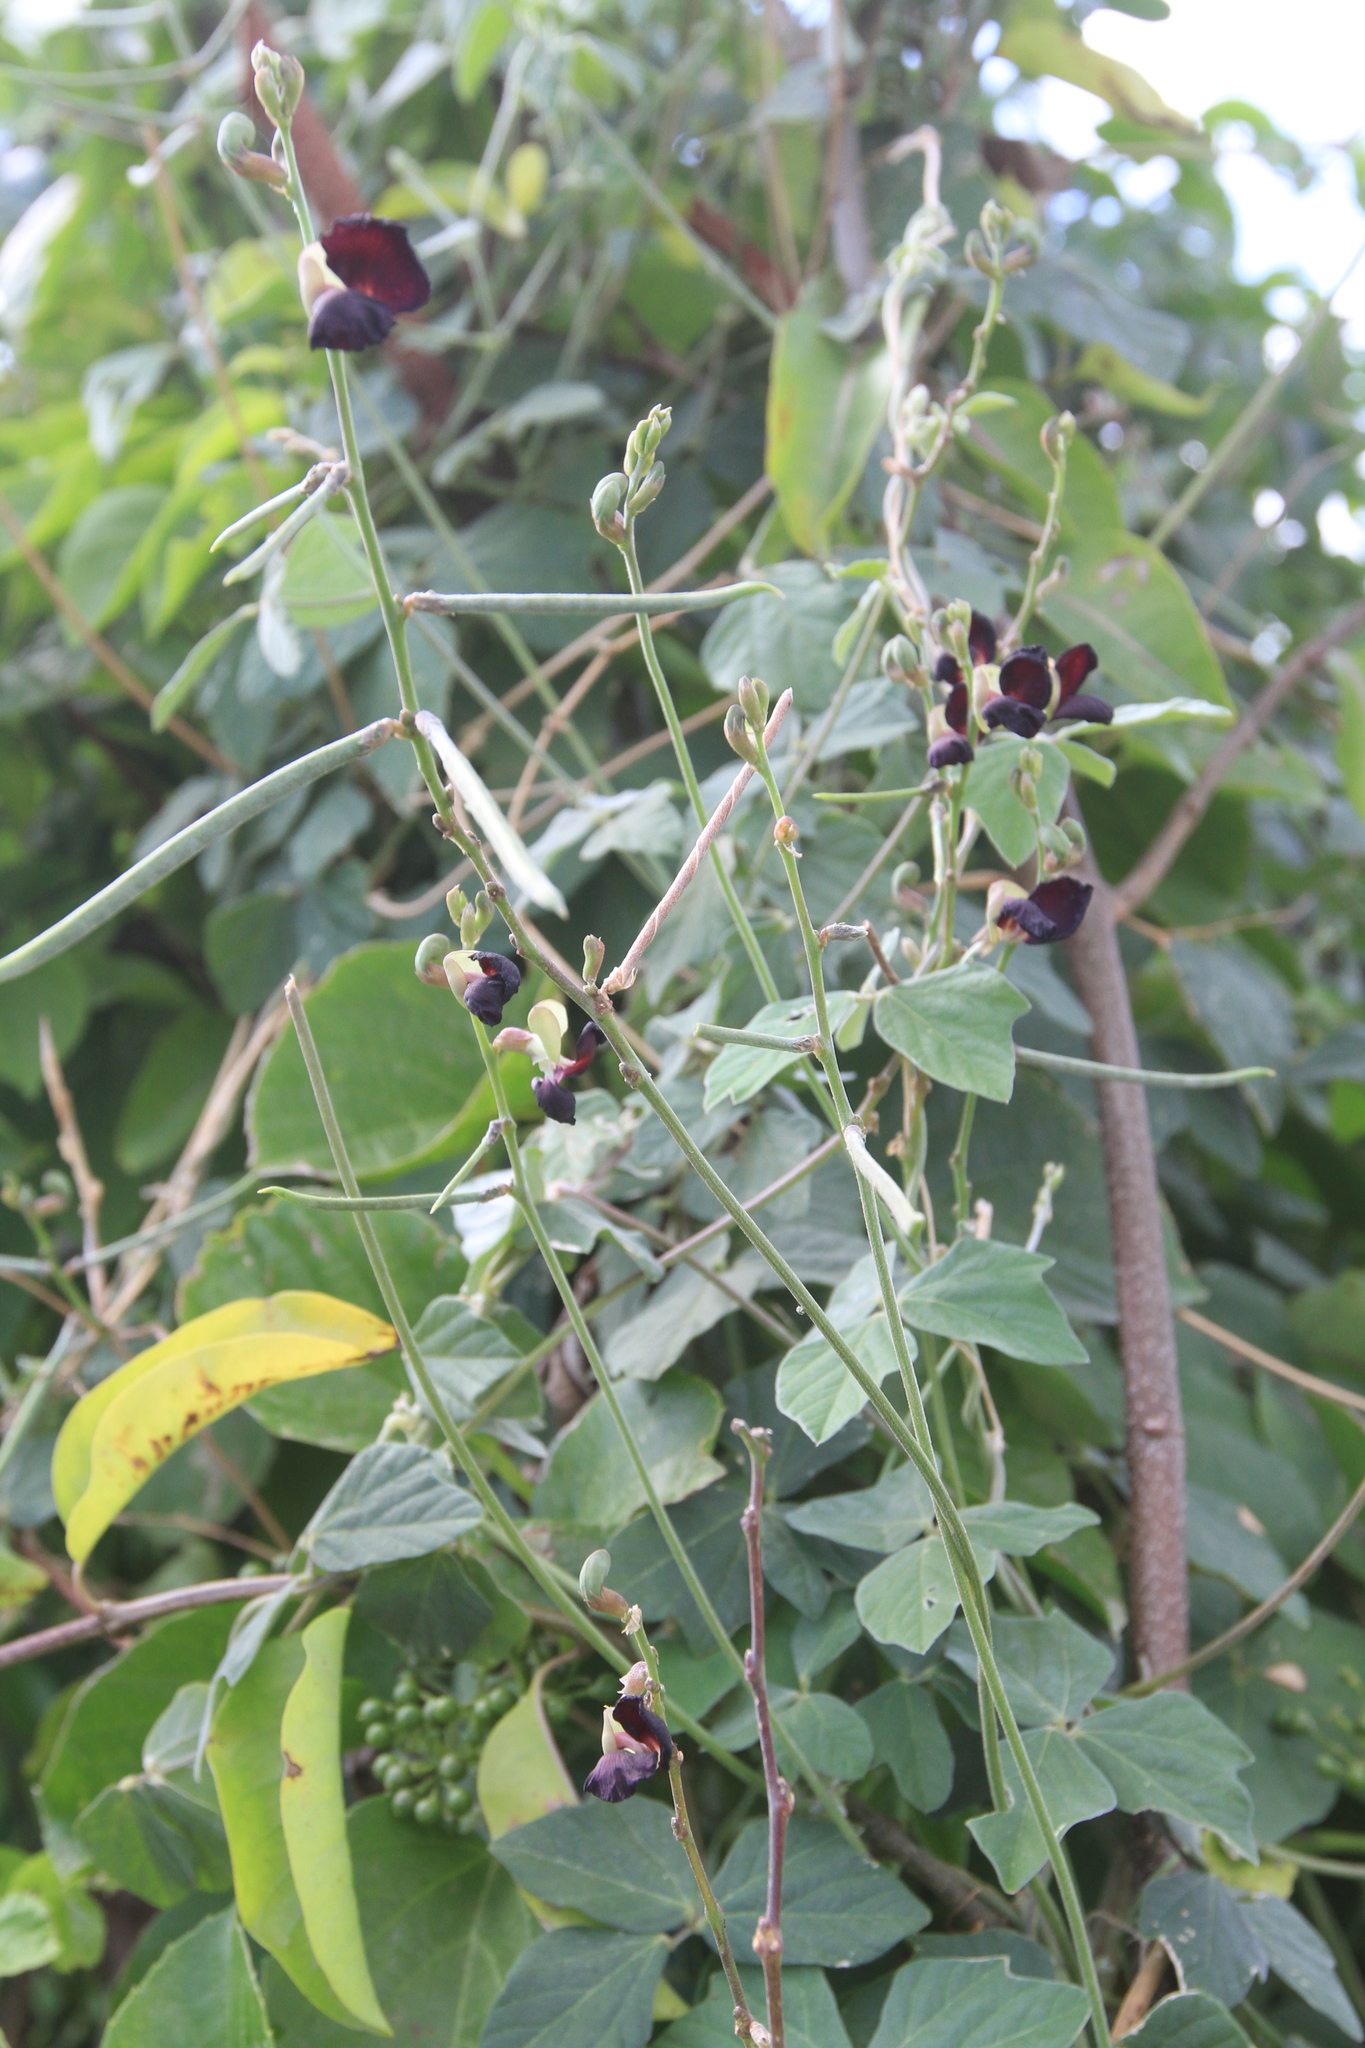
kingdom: Plantae
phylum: Tracheophyta
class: Magnoliopsida
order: Fabales
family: Fabaceae
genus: Macroptilium
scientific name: Macroptilium atropurpureum
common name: Purple bushbean
